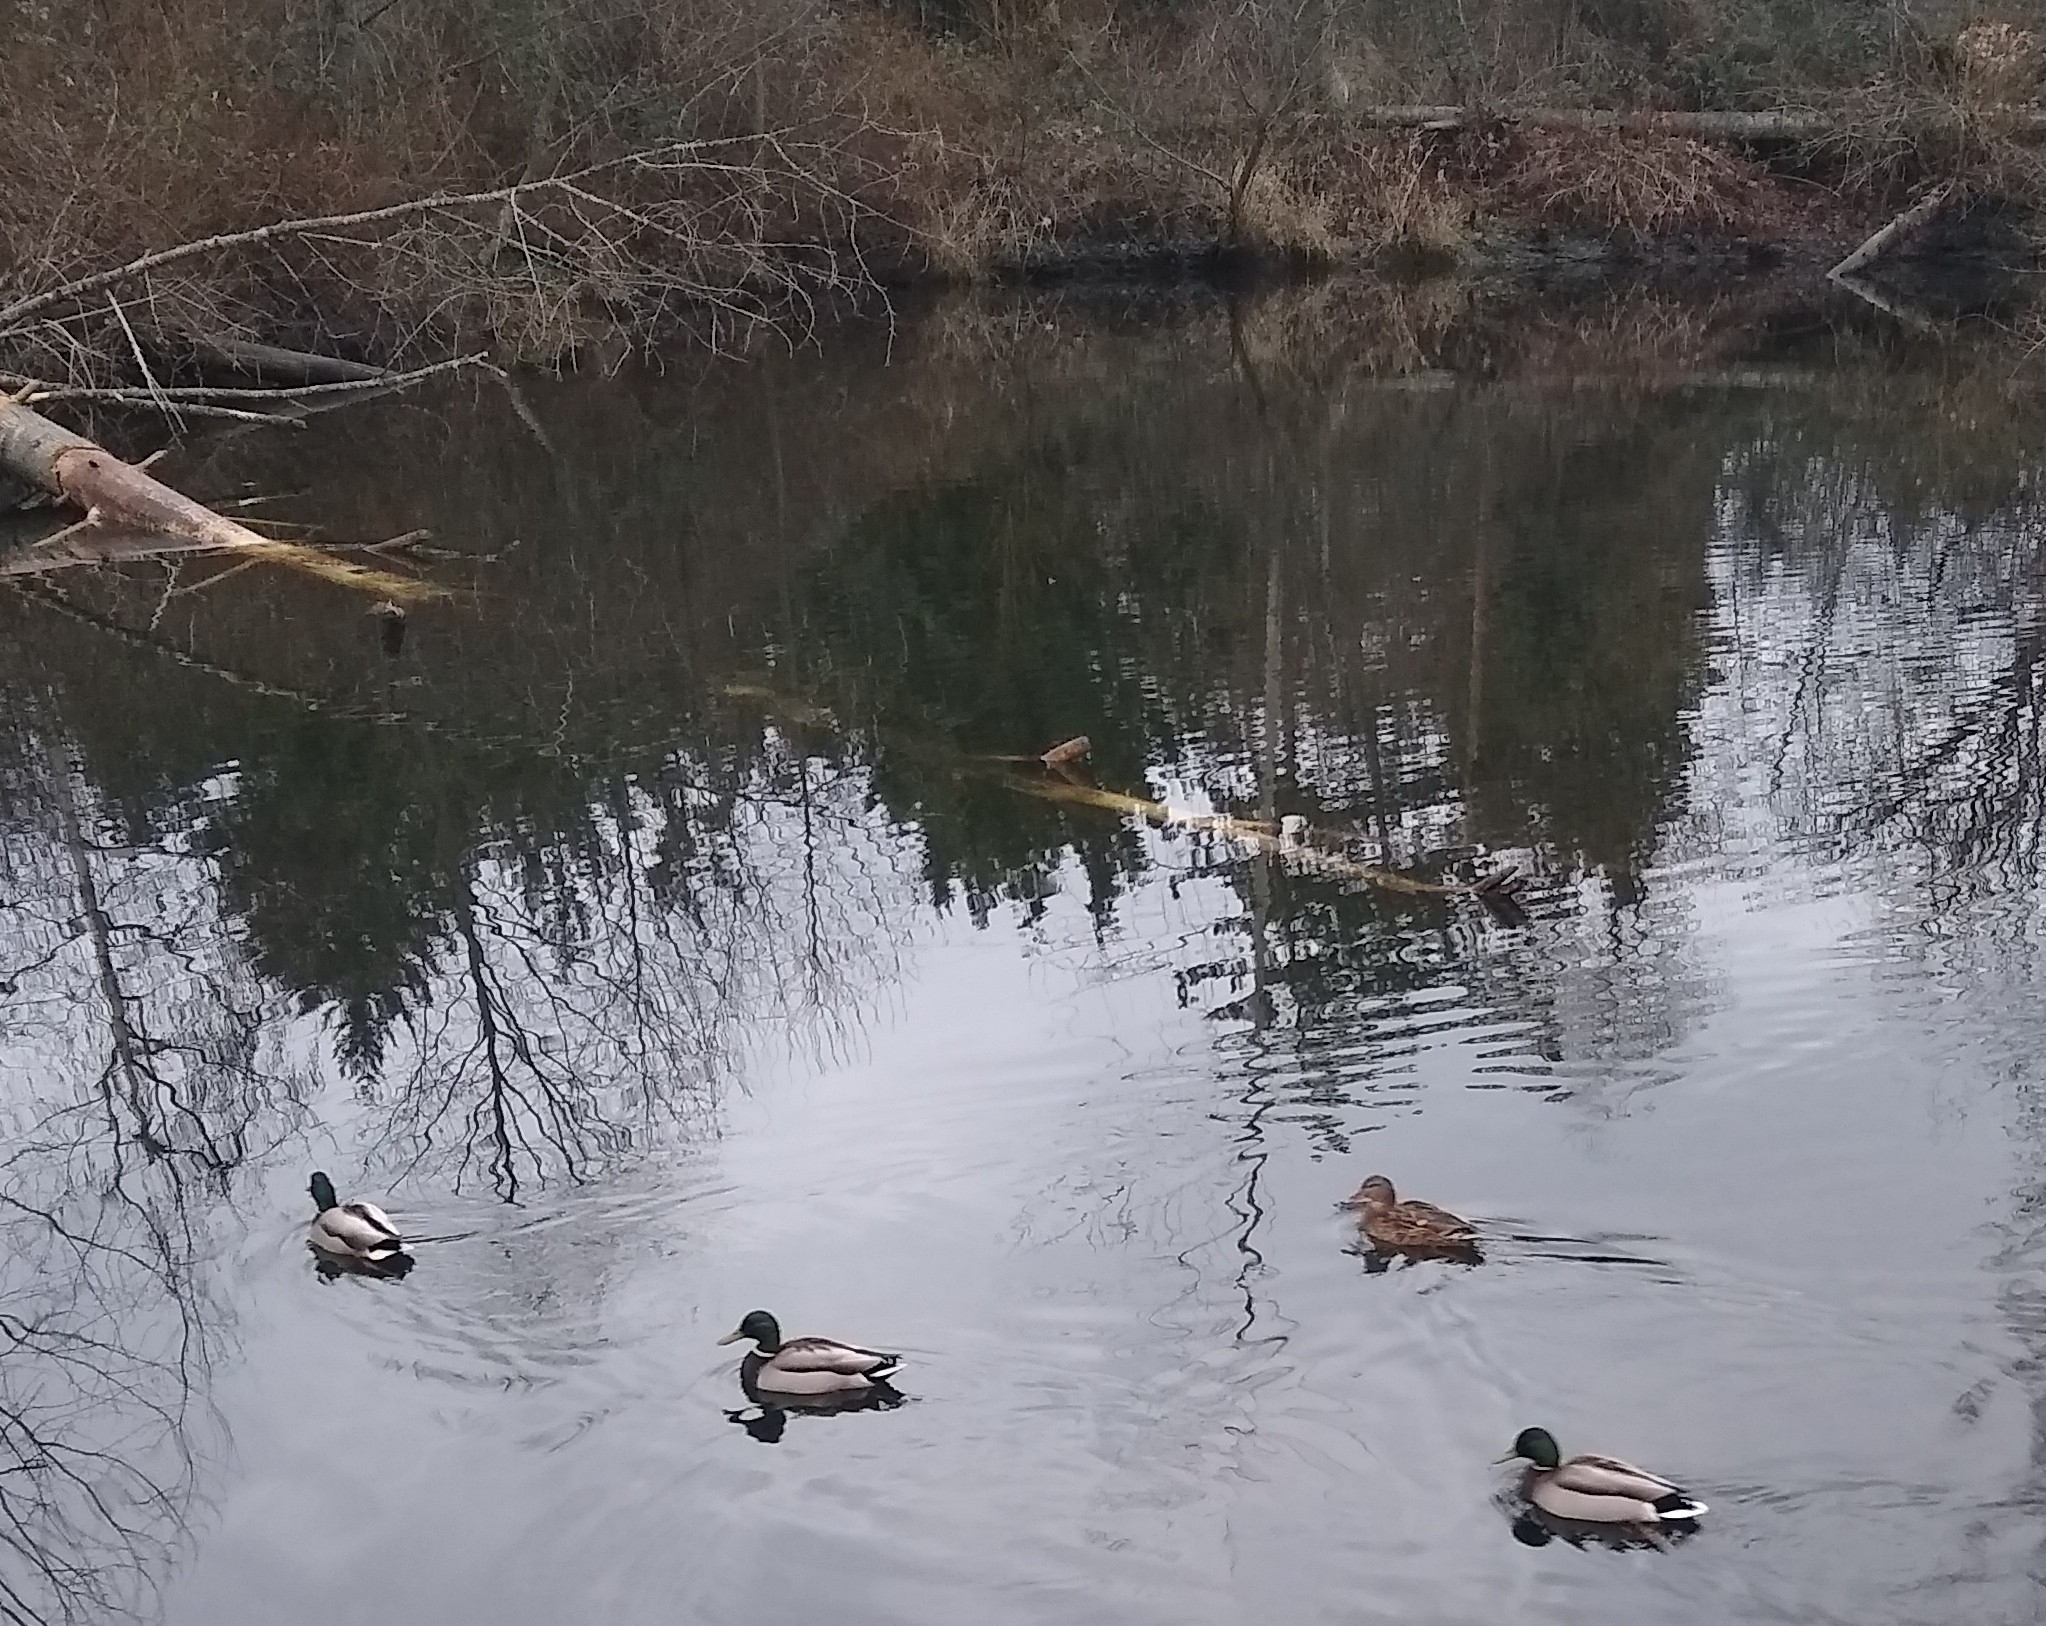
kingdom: Animalia
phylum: Chordata
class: Aves
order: Anseriformes
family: Anatidae
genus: Anas
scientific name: Anas platyrhynchos
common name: Mallard
